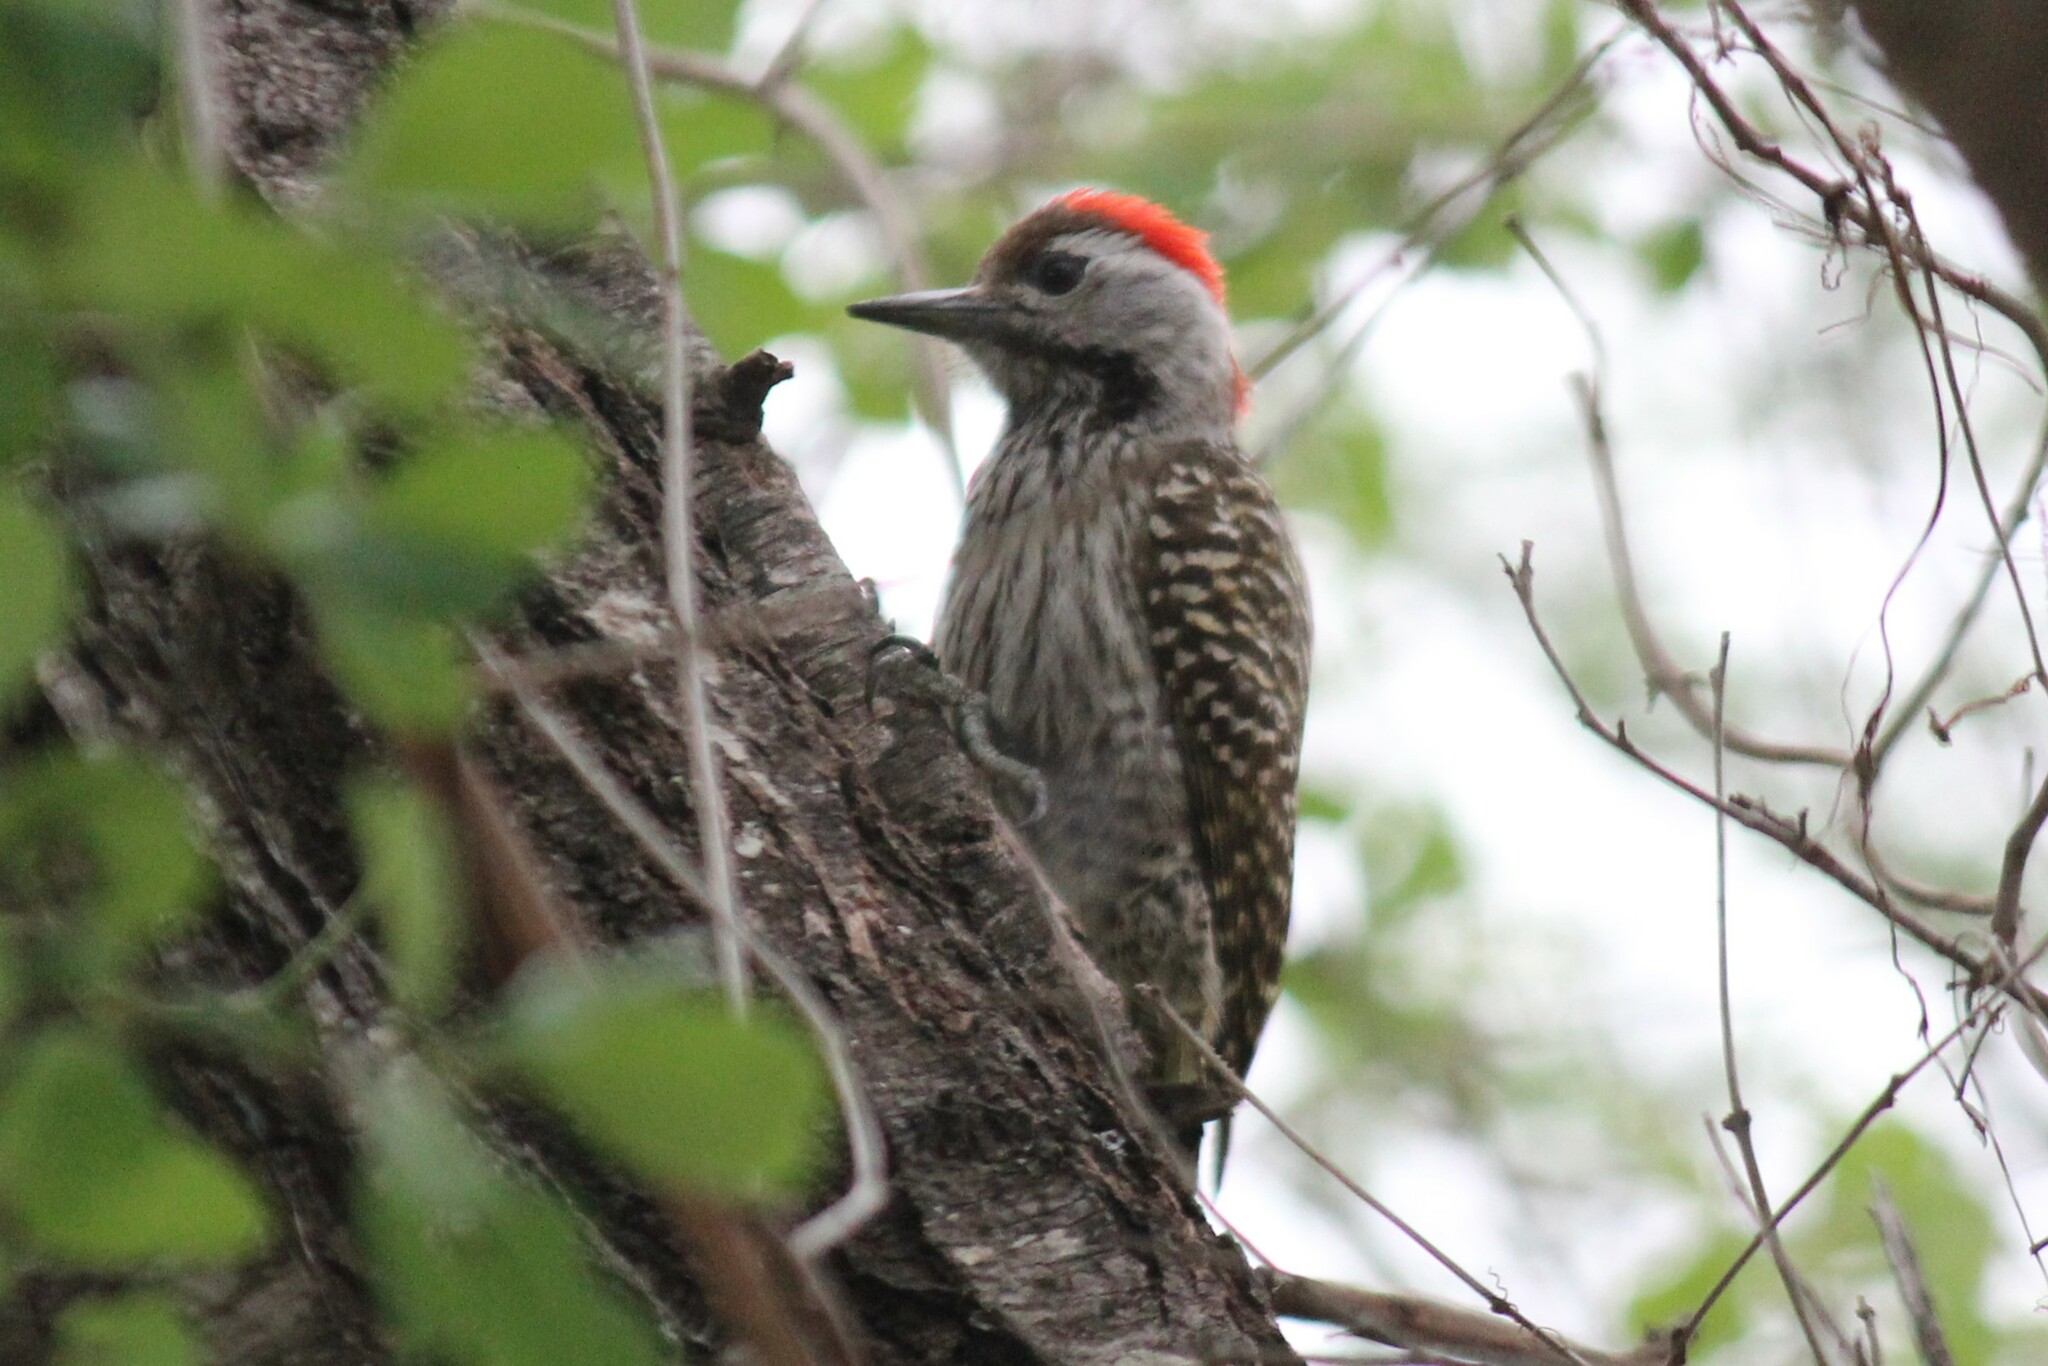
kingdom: Animalia
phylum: Chordata
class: Aves
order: Piciformes
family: Picidae
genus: Dendropicos
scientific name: Dendropicos fuscescens
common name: Cardinal woodpecker
